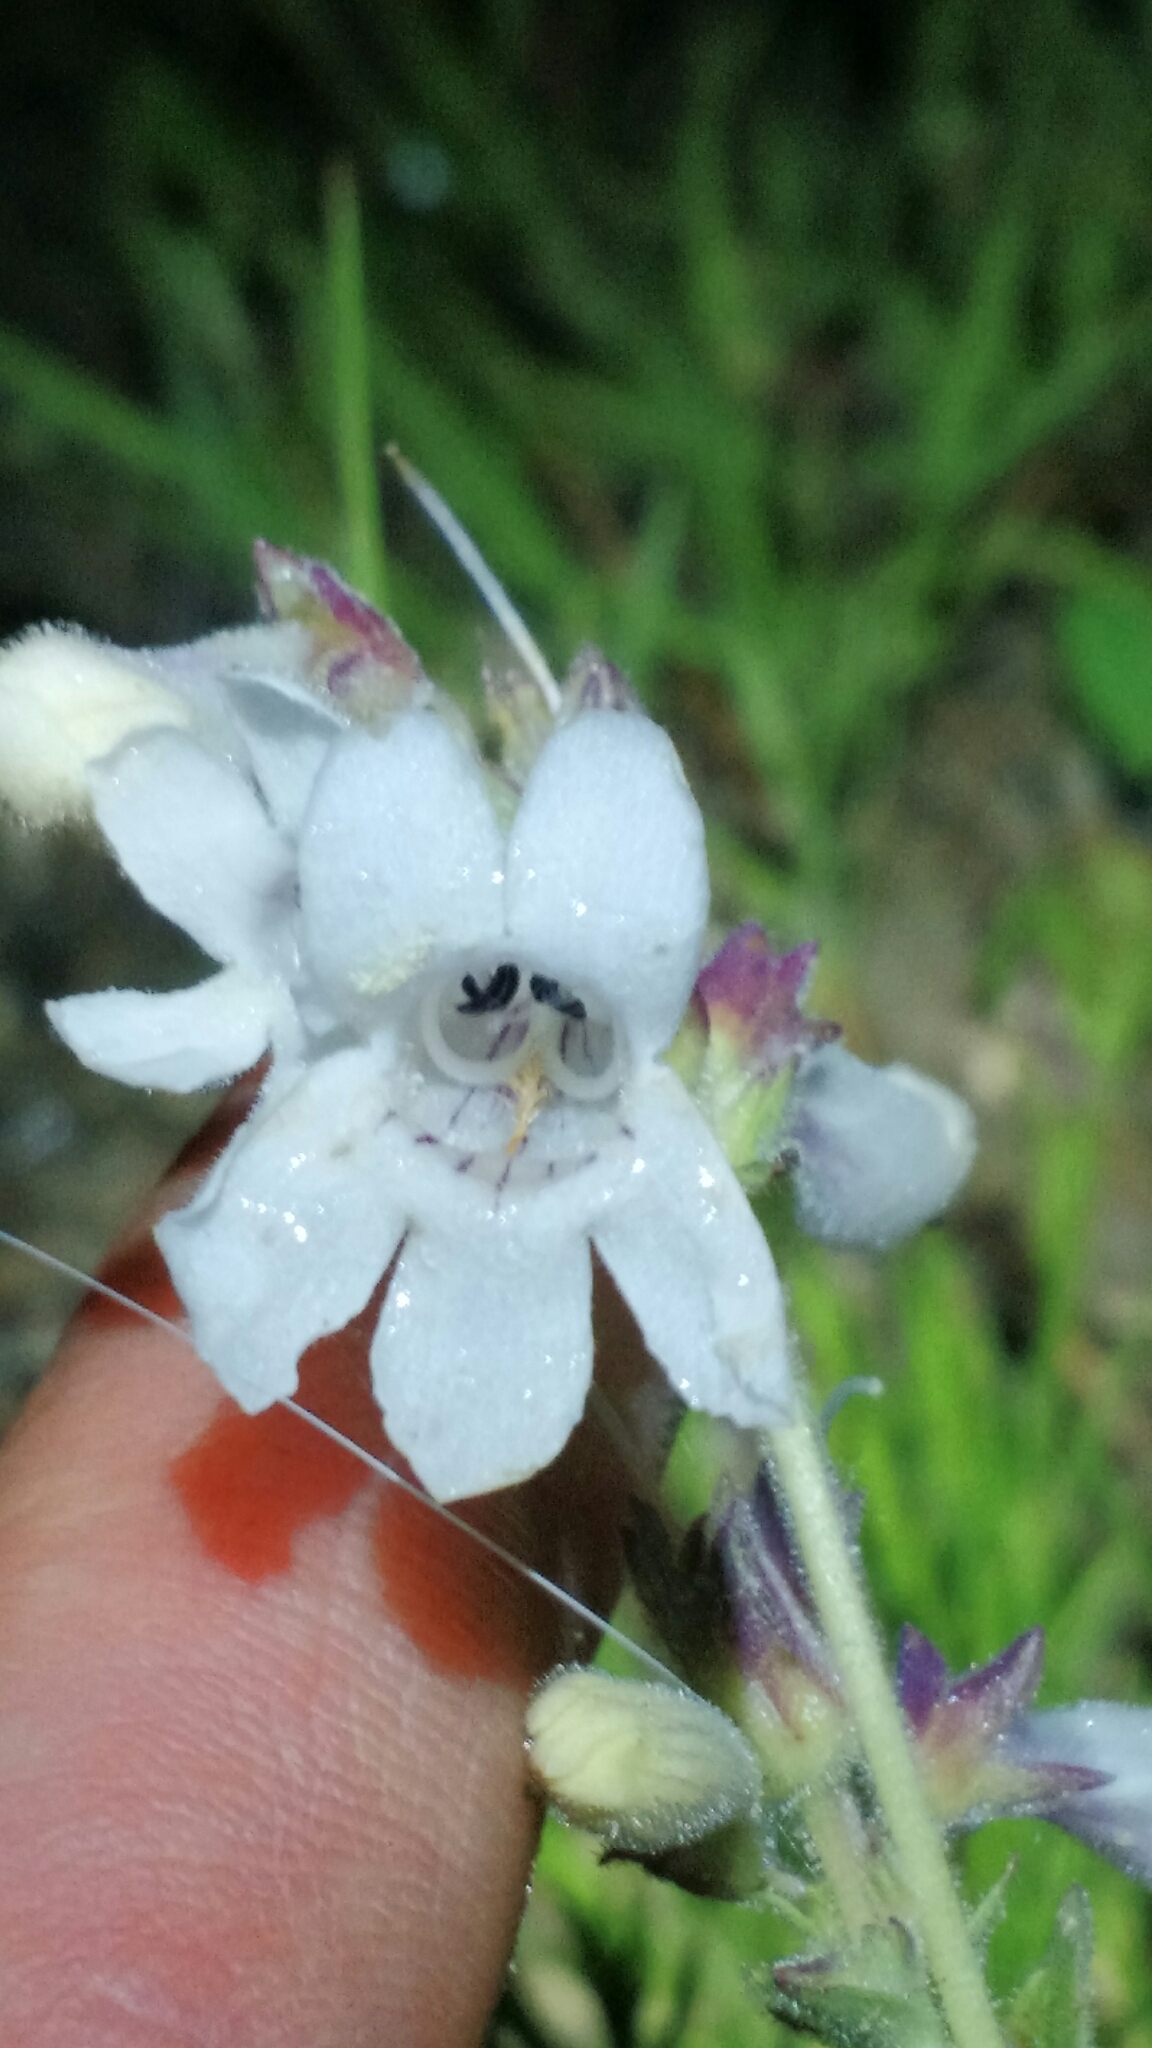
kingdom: Plantae
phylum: Tracheophyta
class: Magnoliopsida
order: Lamiales
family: Plantaginaceae
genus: Penstemon
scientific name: Penstemon albidus
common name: White beardtongue
